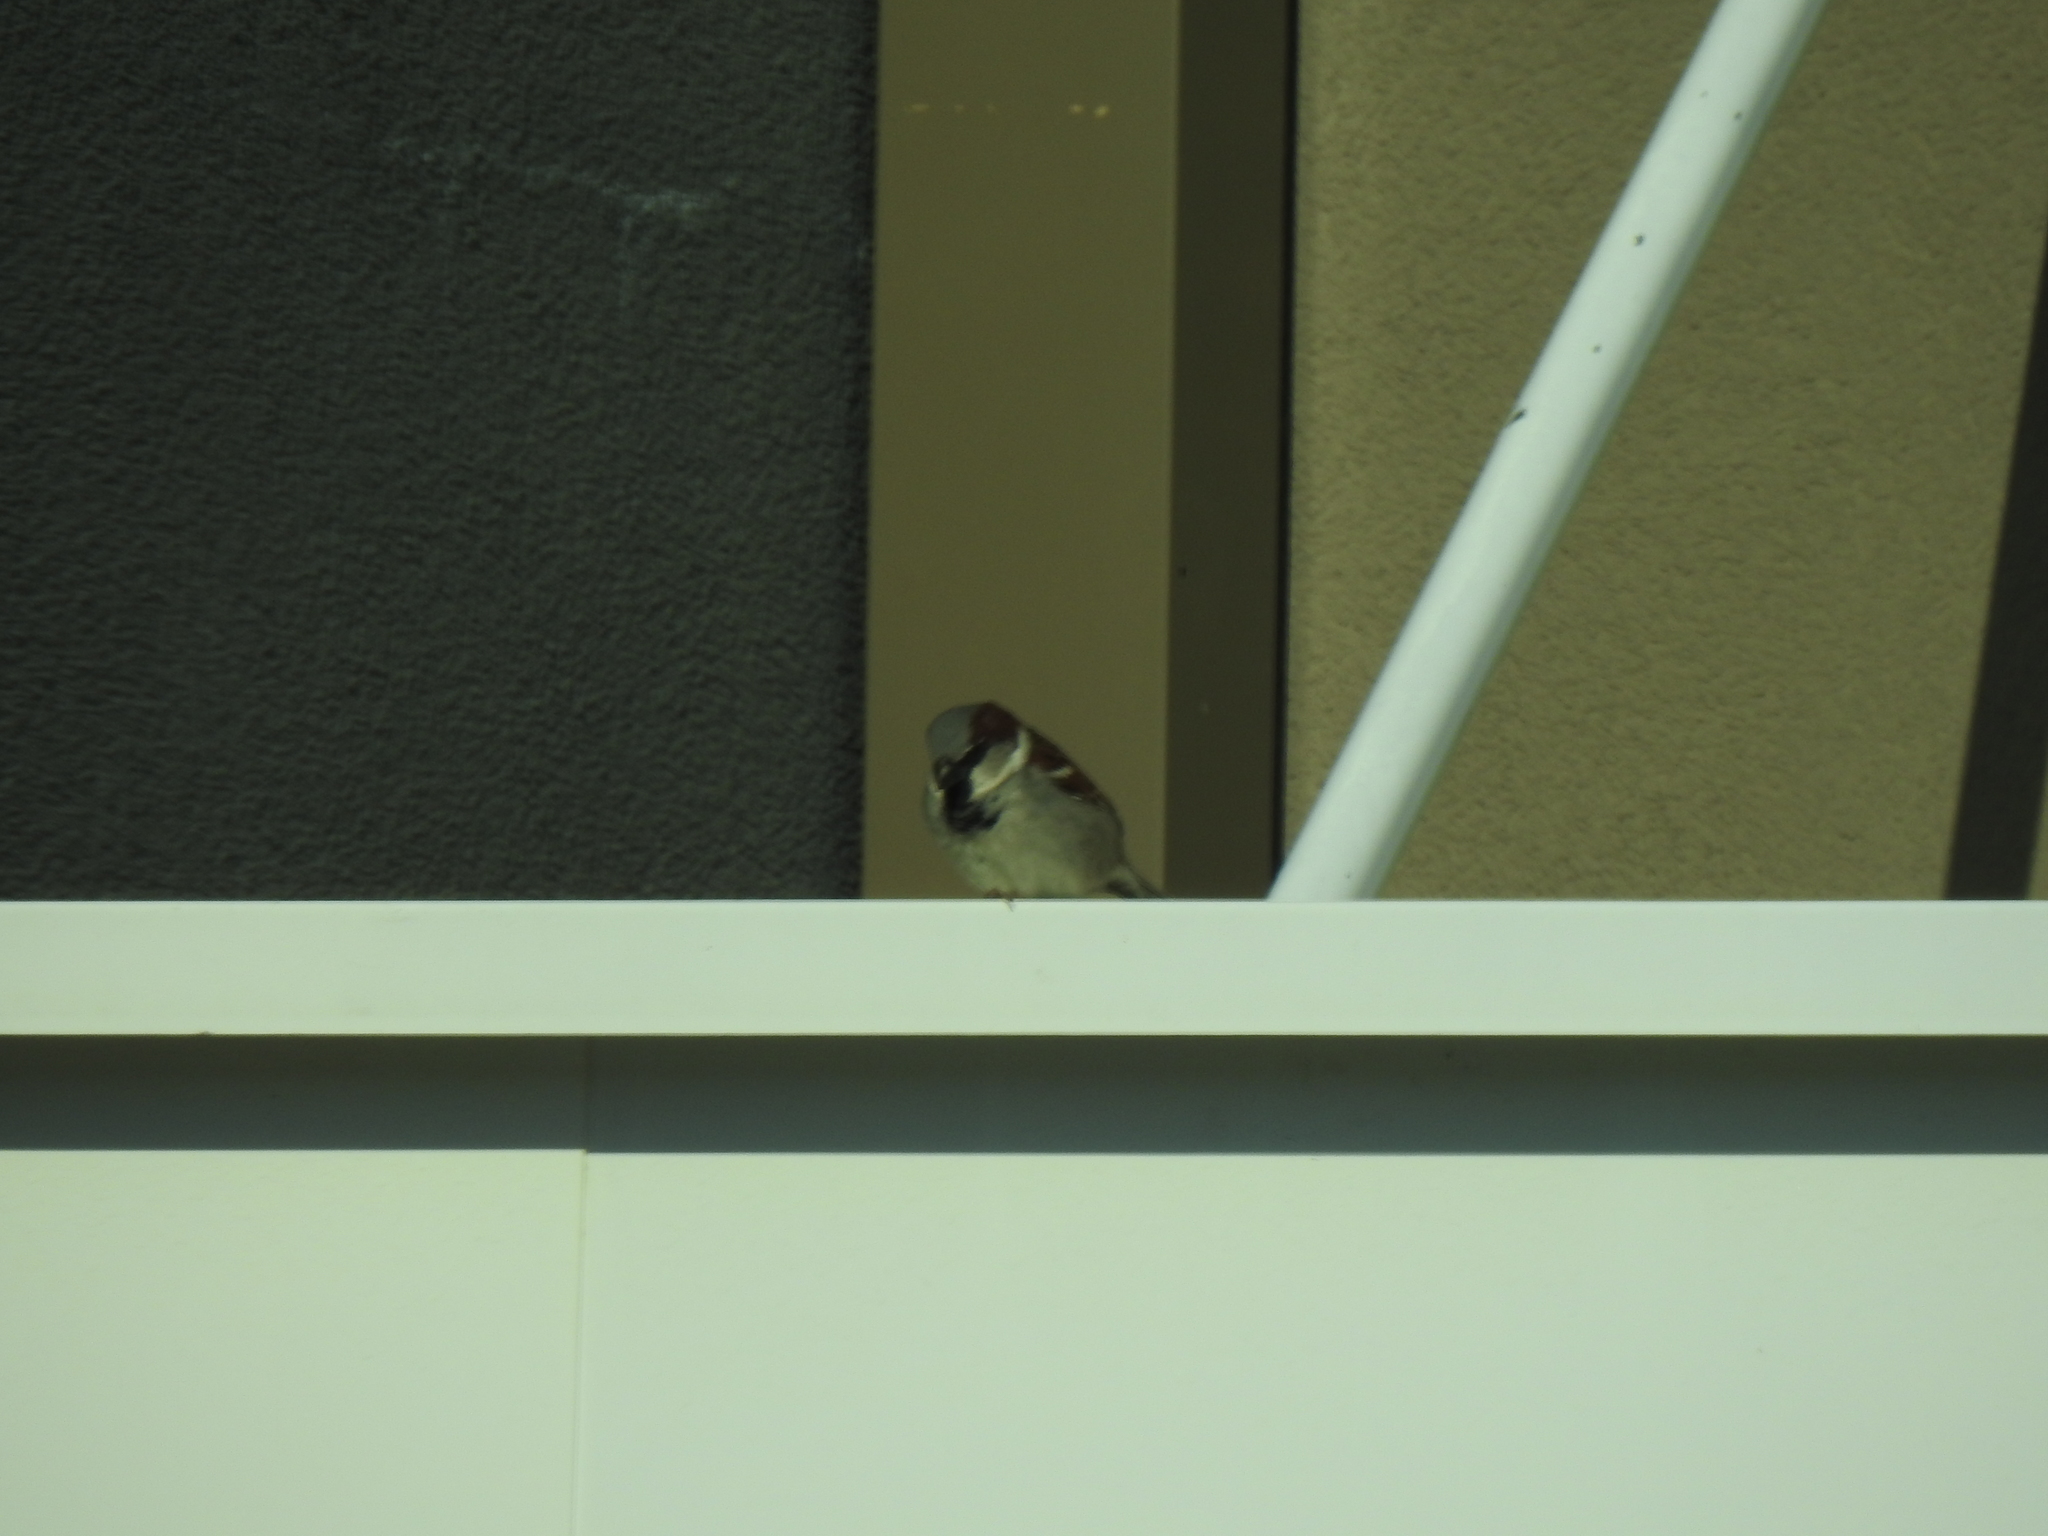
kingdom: Animalia
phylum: Chordata
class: Aves
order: Passeriformes
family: Passeridae
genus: Passer
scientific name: Passer domesticus
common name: House sparrow
